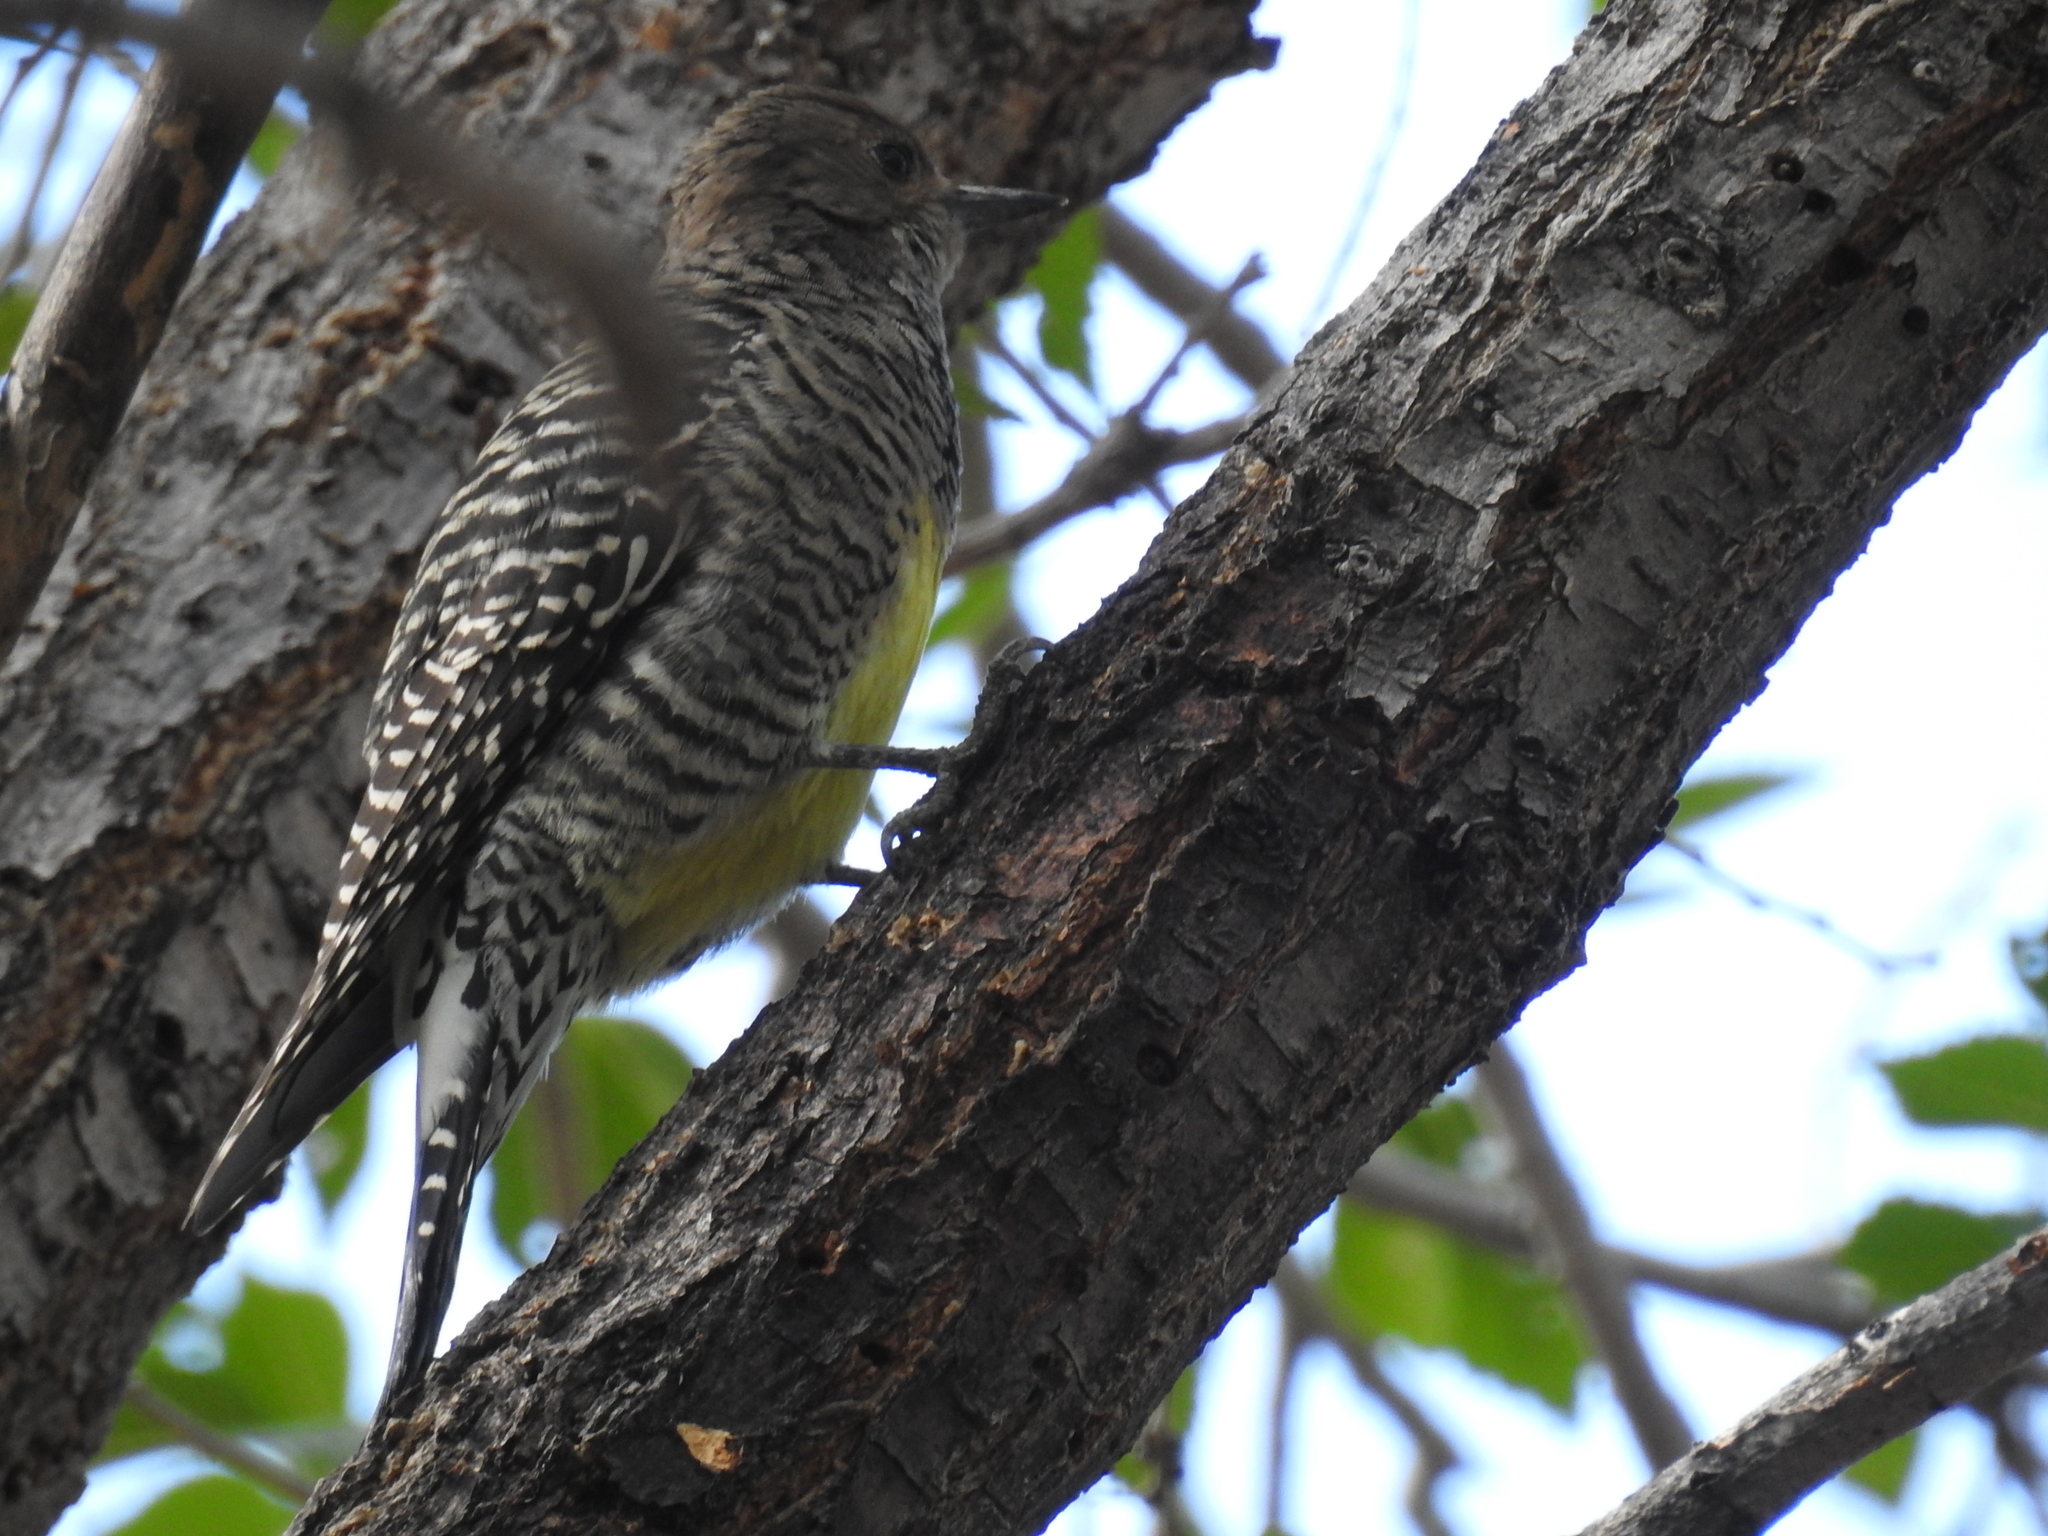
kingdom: Animalia
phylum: Chordata
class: Aves
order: Piciformes
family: Picidae
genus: Sphyrapicus
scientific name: Sphyrapicus thyroideus
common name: Williamson's sapsucker
